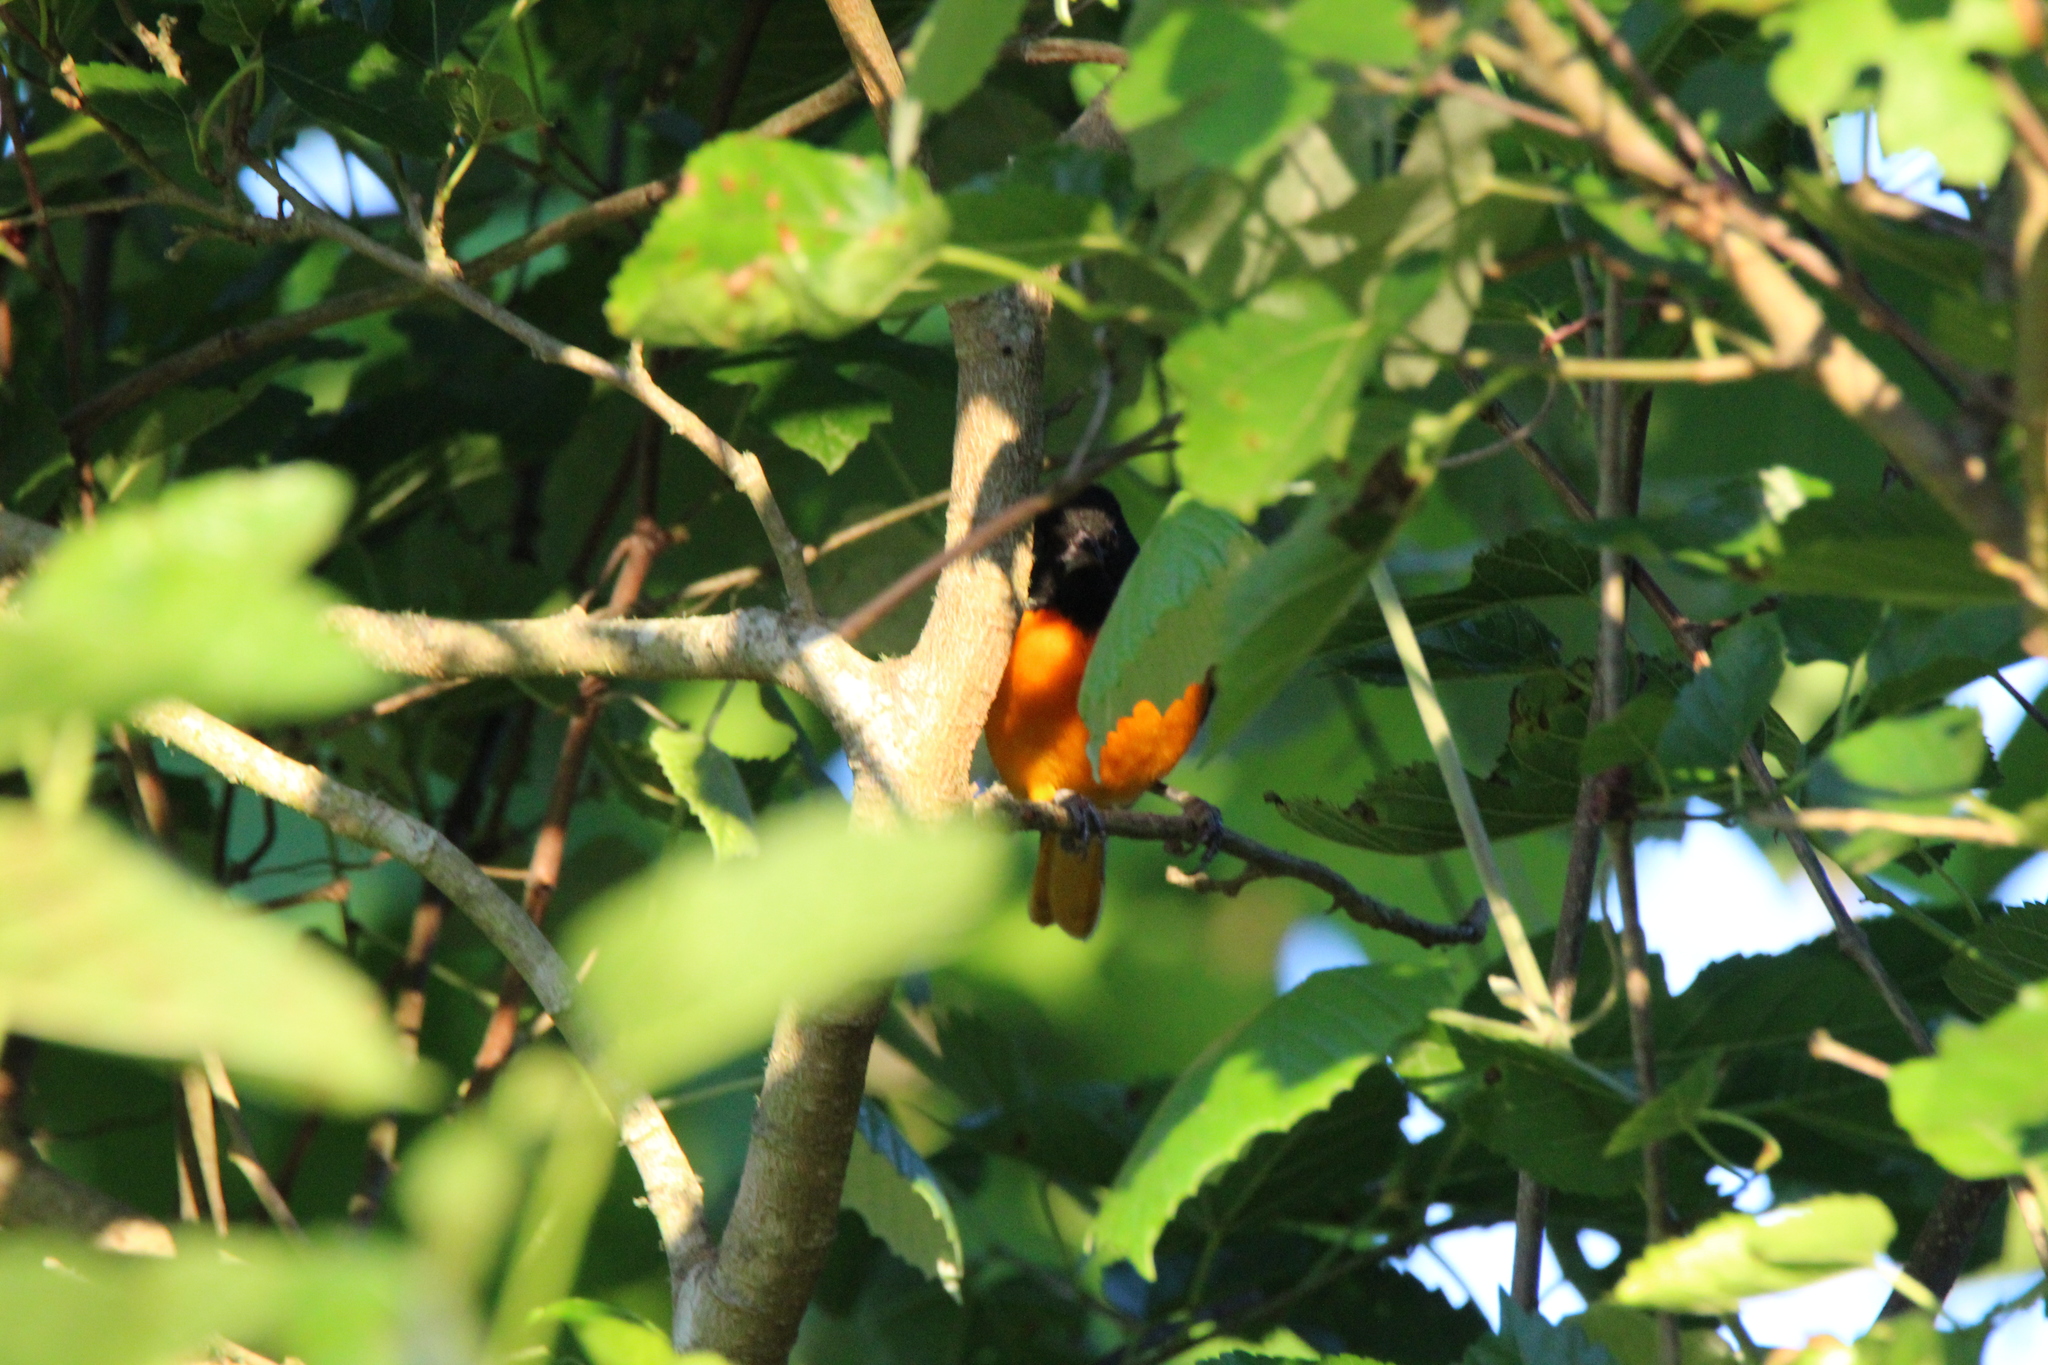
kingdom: Animalia
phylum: Chordata
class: Aves
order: Passeriformes
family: Icteridae
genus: Icterus
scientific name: Icterus galbula
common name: Baltimore oriole
